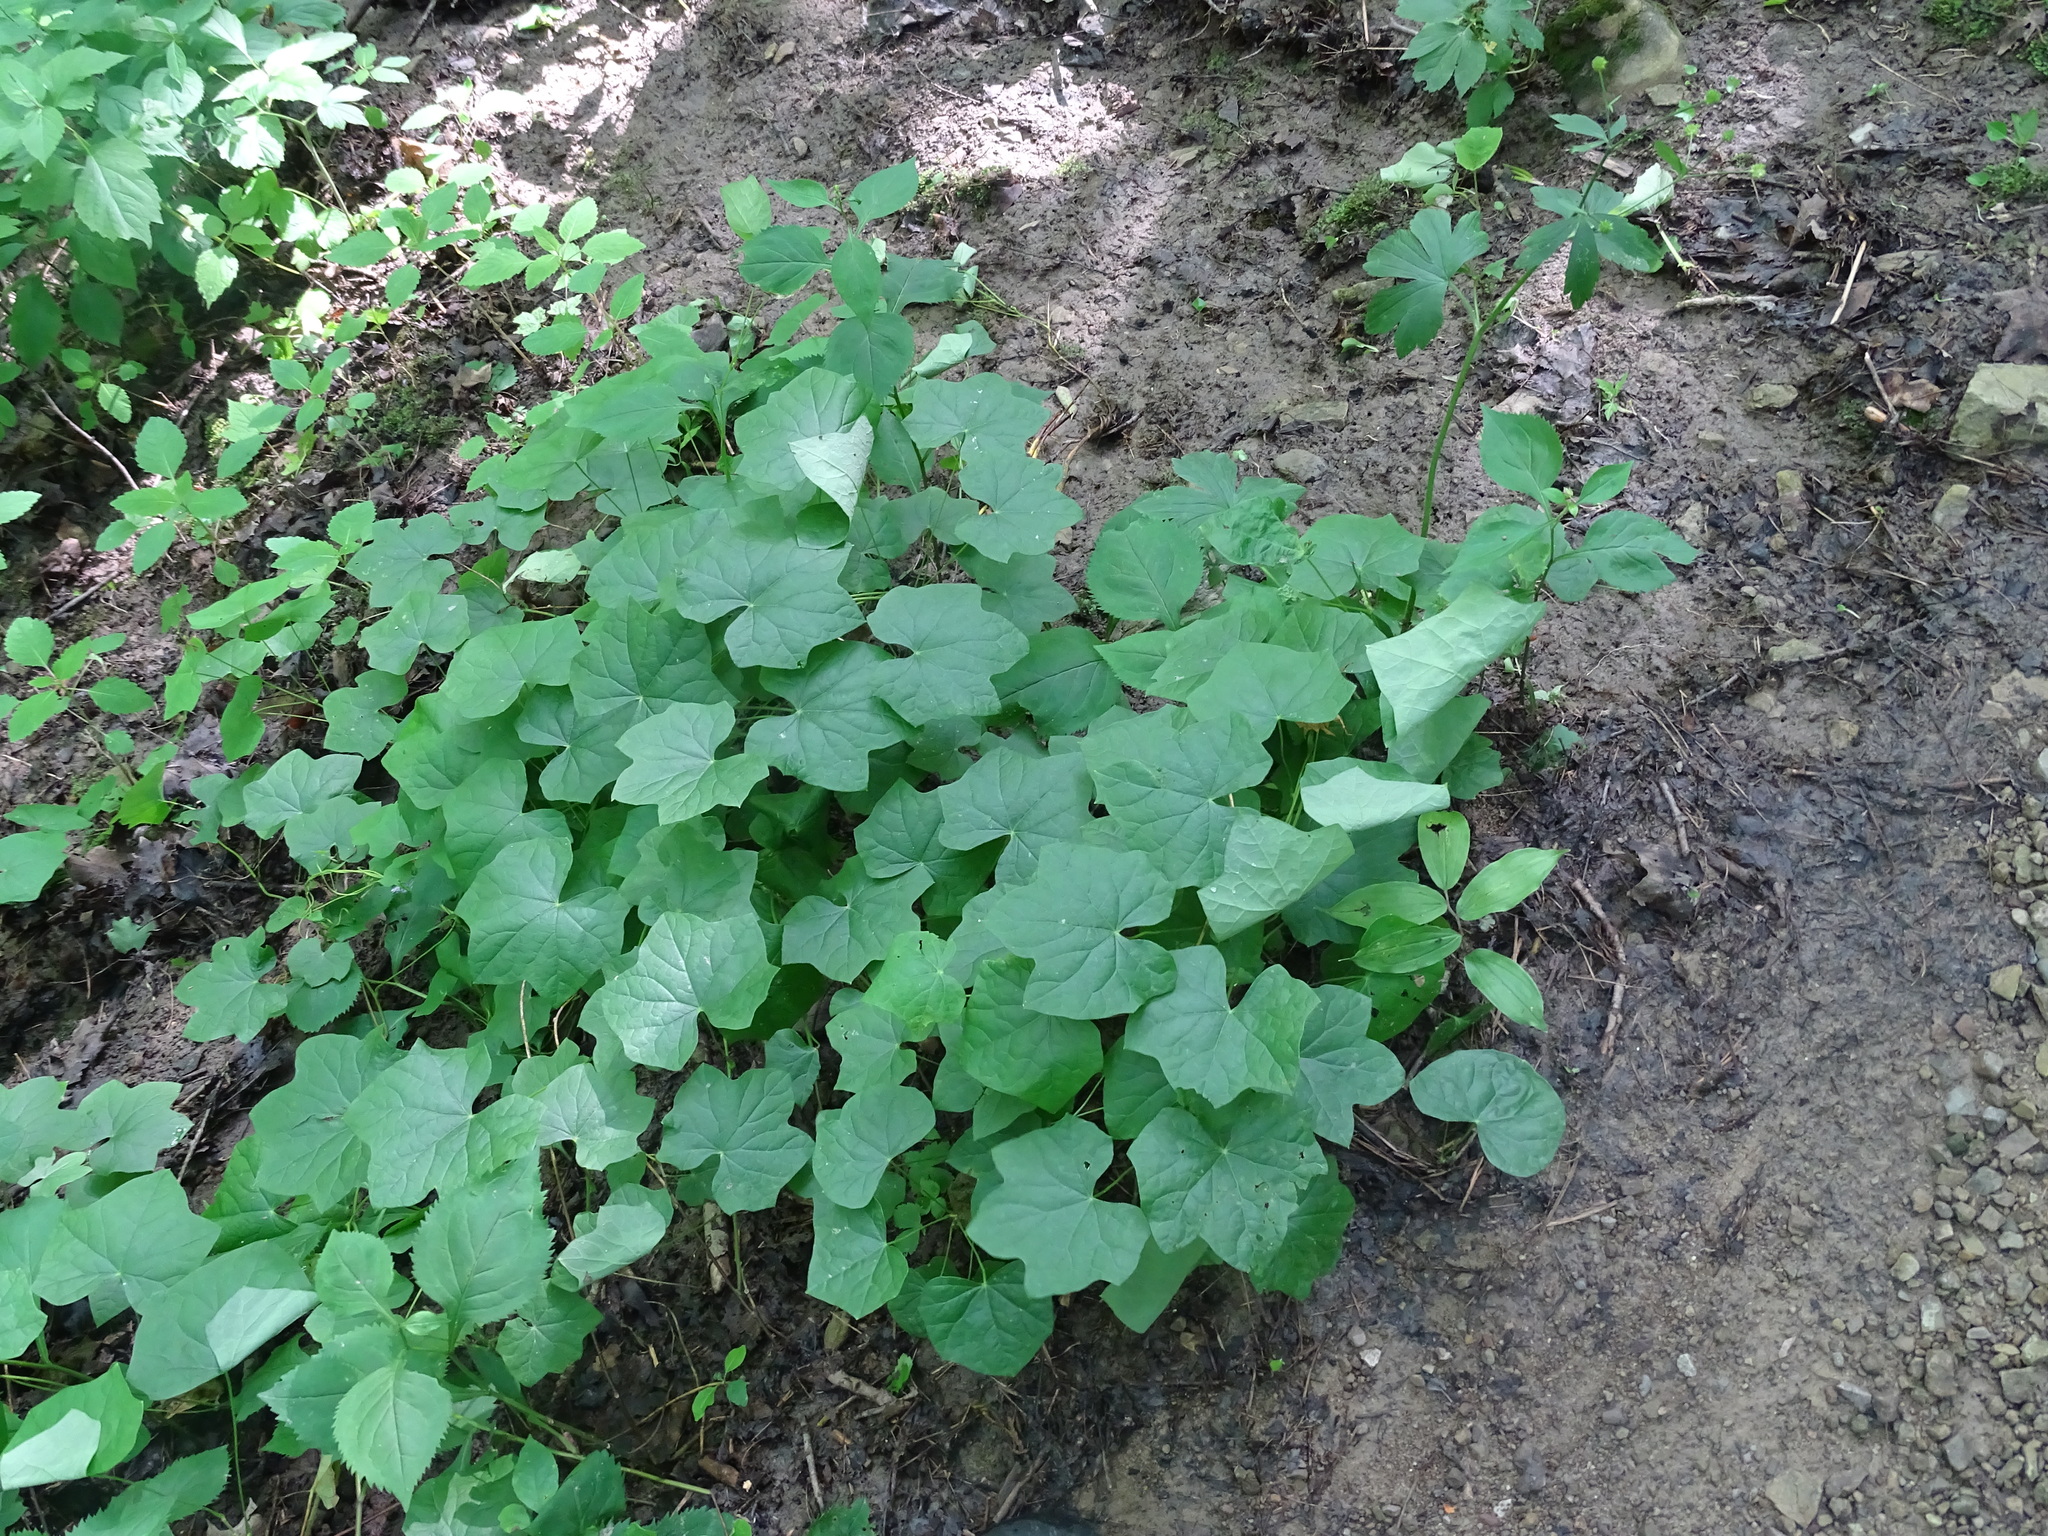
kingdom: Plantae
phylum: Tracheophyta
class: Magnoliopsida
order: Ranunculales
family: Menispermaceae
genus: Menispermum
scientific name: Menispermum canadense
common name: Moonseed
